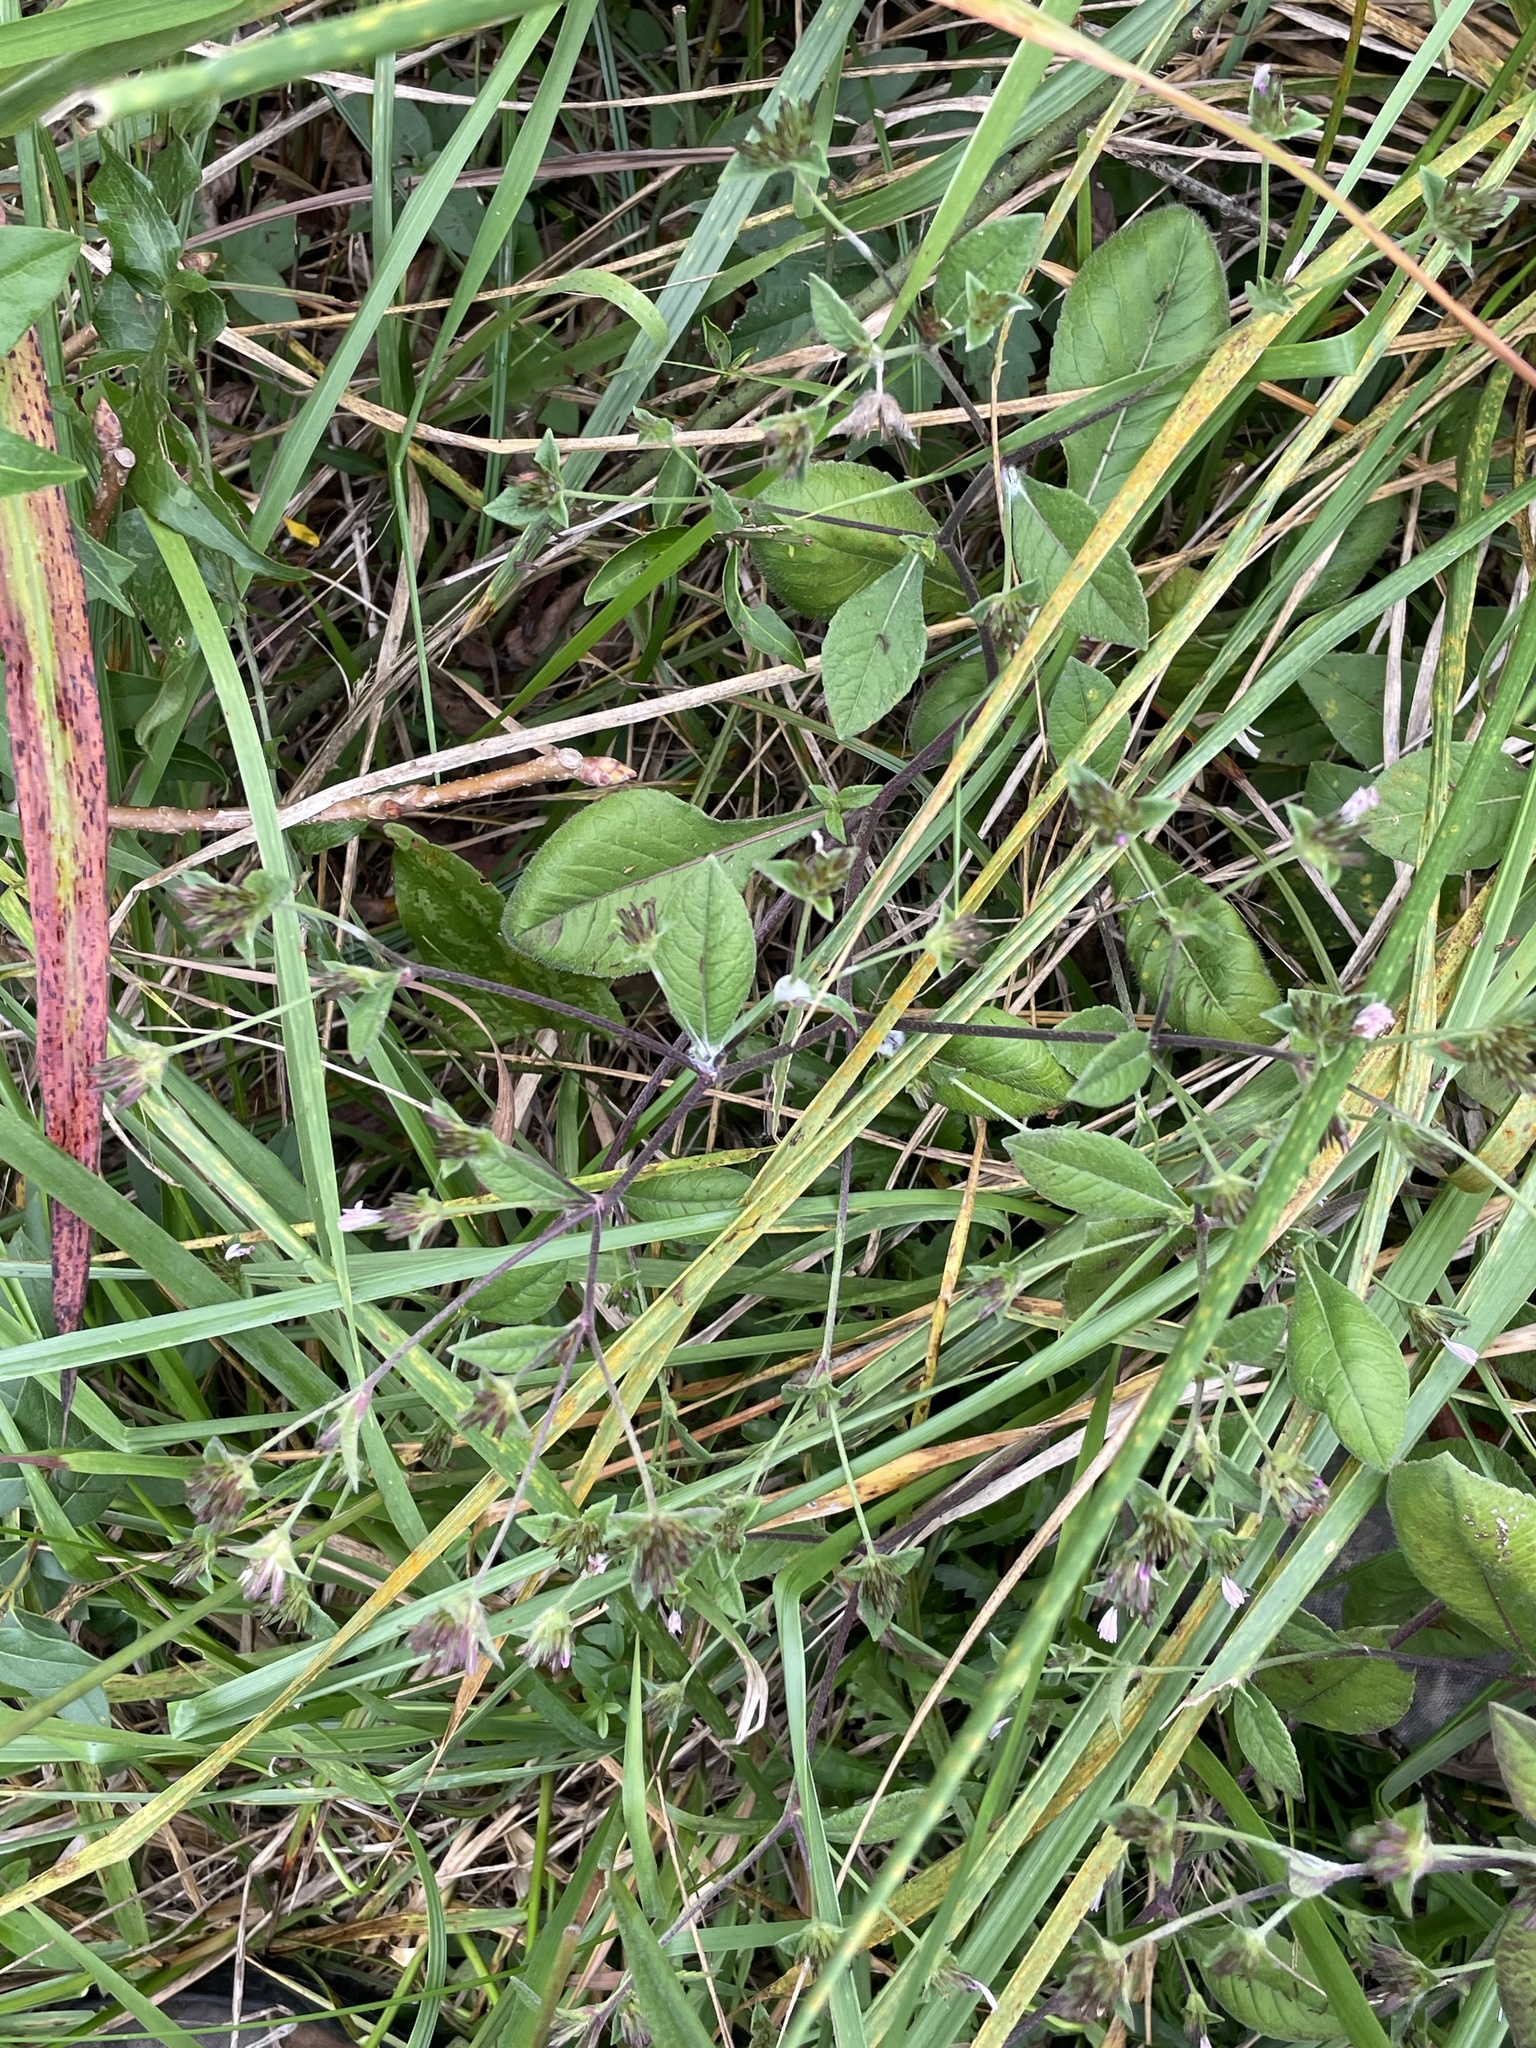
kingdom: Plantae
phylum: Tracheophyta
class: Magnoliopsida
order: Asterales
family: Asteraceae
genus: Elephantopus
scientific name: Elephantopus carolinianus
